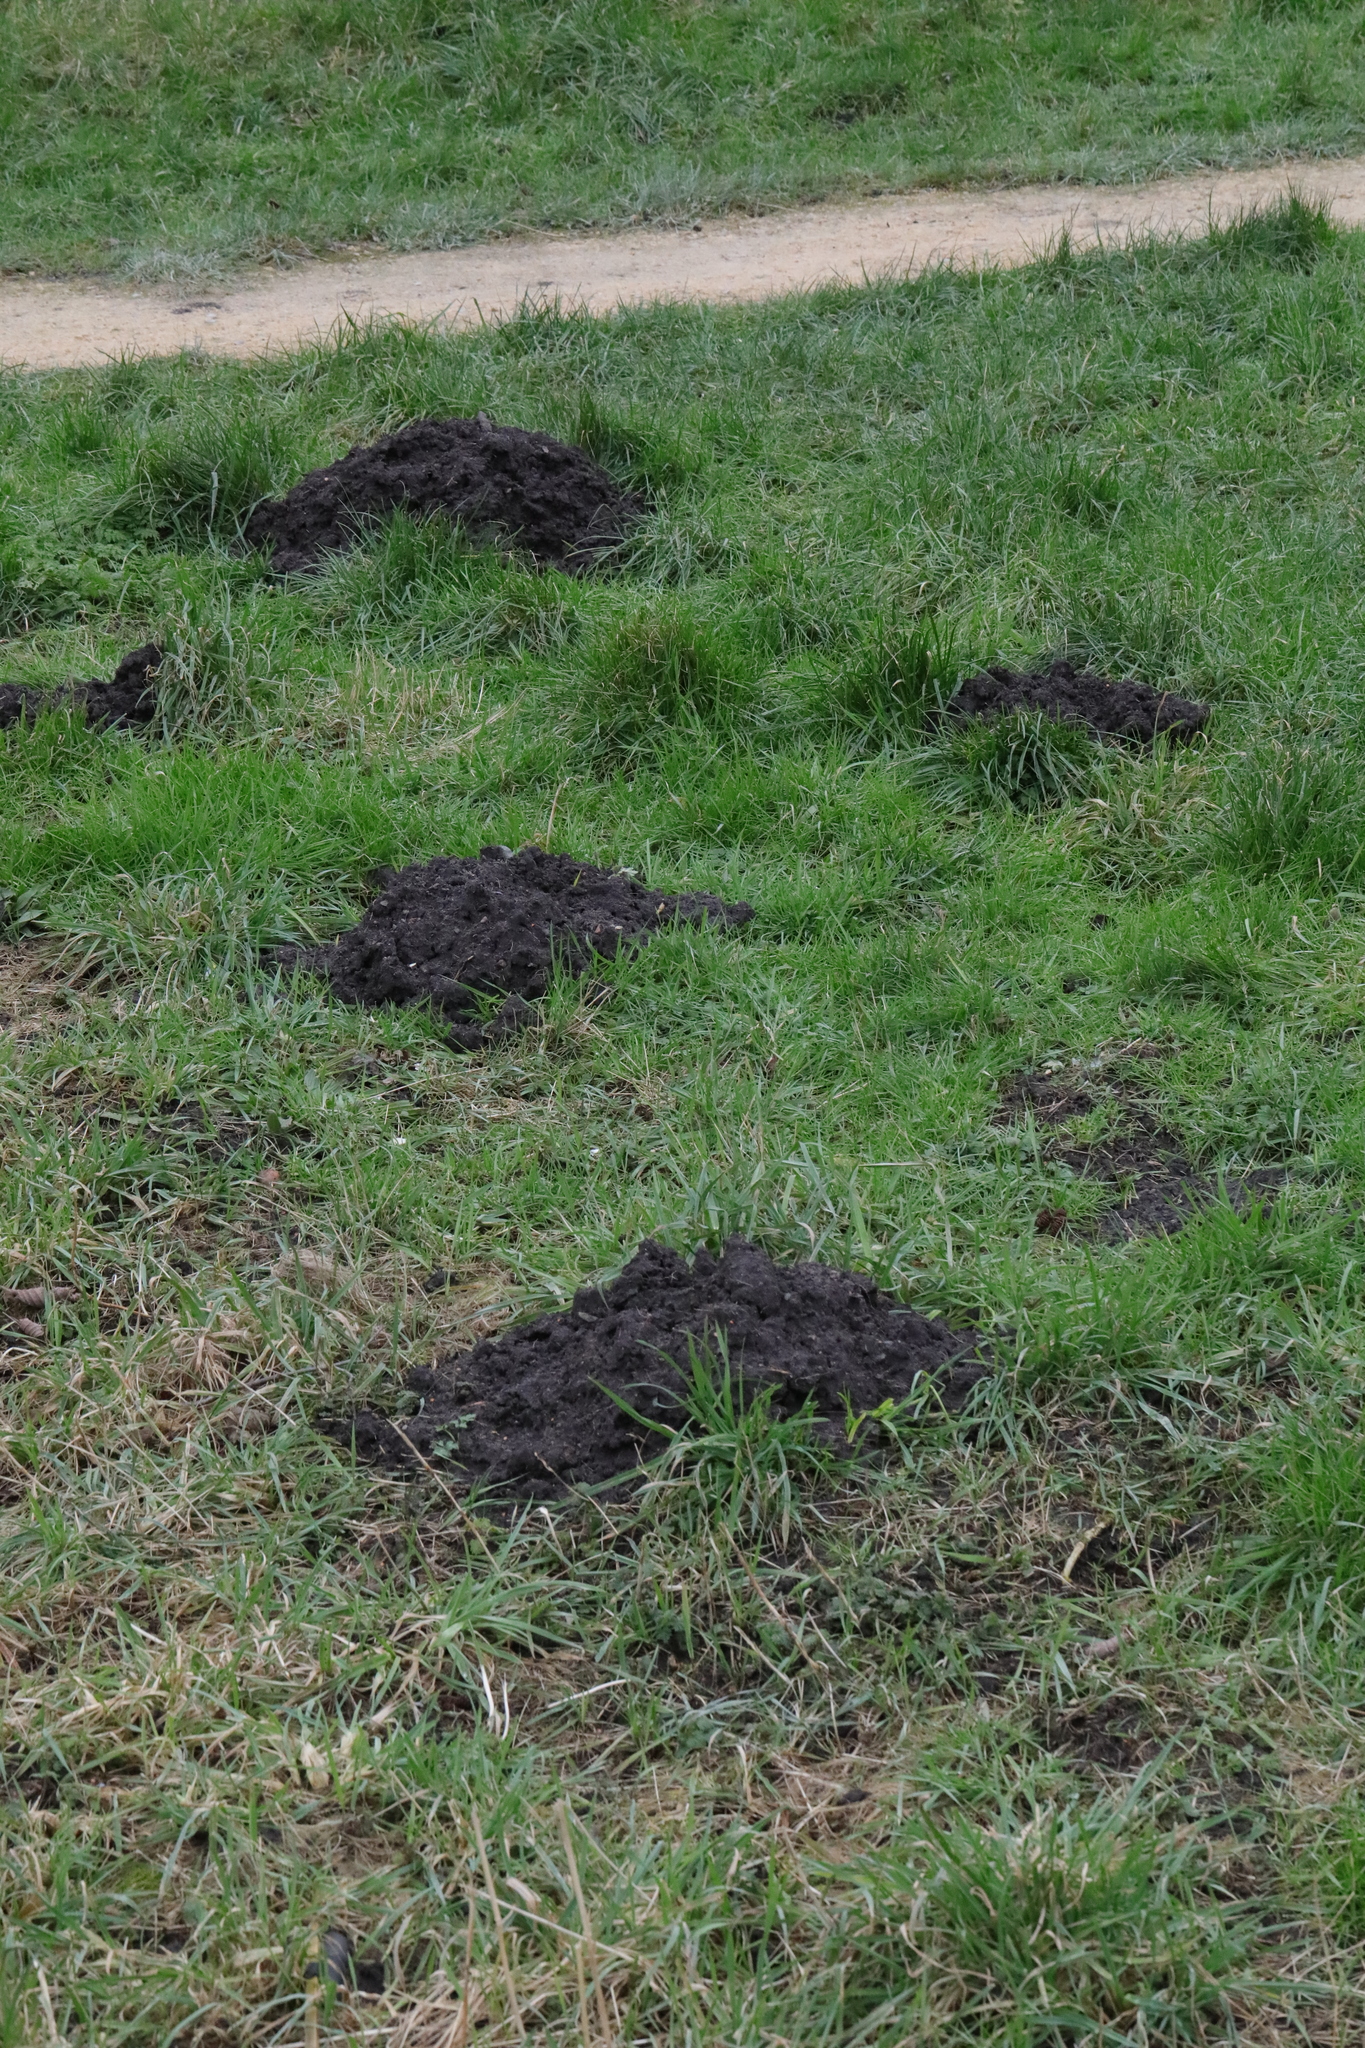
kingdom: Animalia
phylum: Chordata
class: Mammalia
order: Soricomorpha
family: Talpidae
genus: Talpa
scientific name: Talpa europaea
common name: European mole
